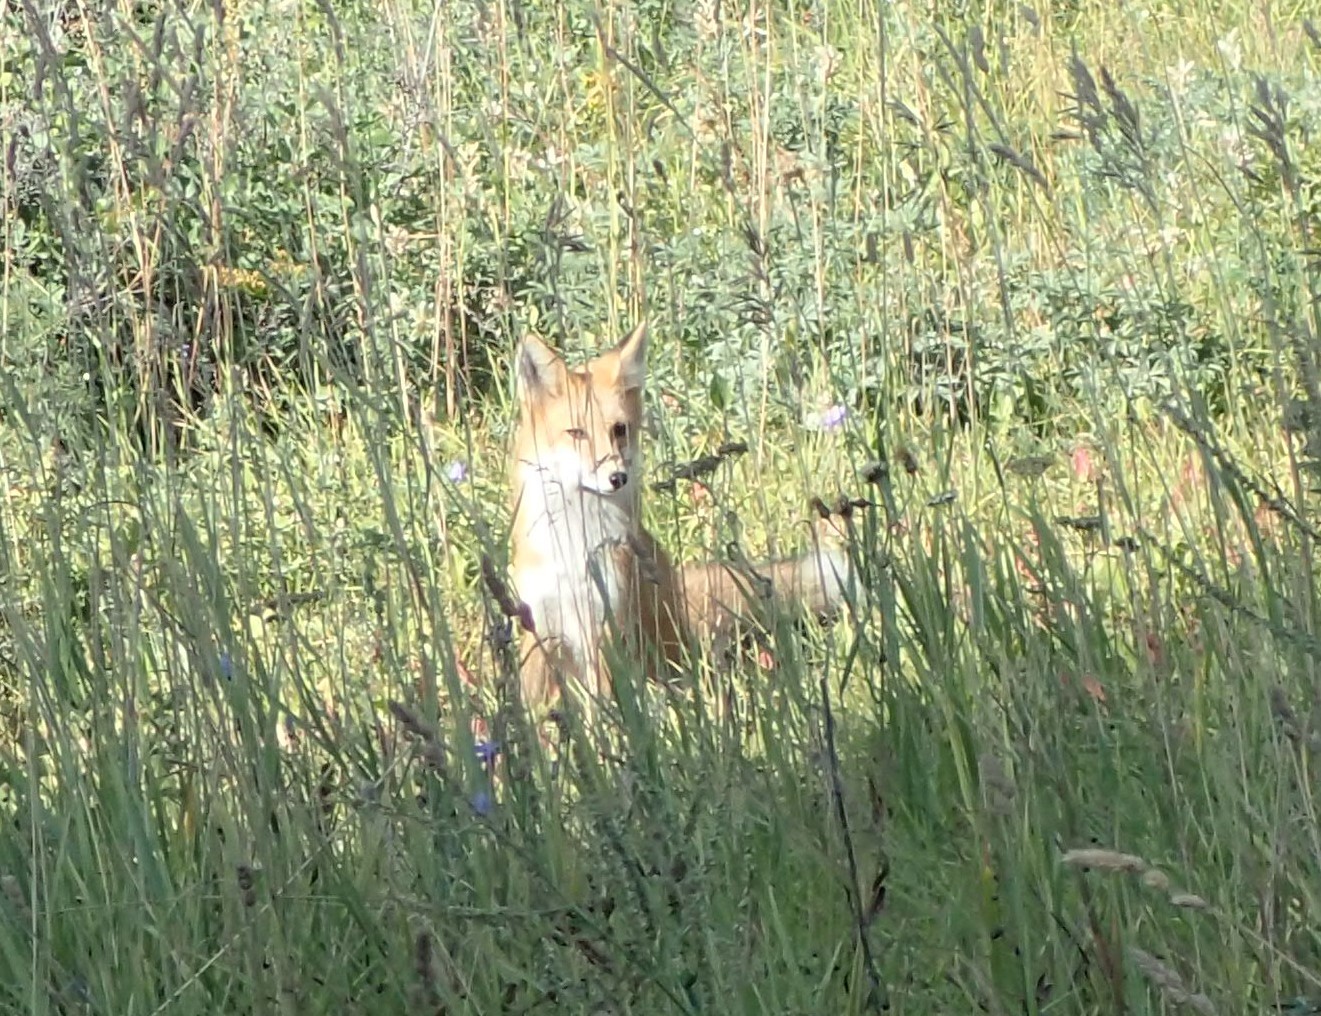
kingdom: Animalia
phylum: Chordata
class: Mammalia
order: Carnivora
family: Canidae
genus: Vulpes
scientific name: Vulpes vulpes
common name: Red fox
